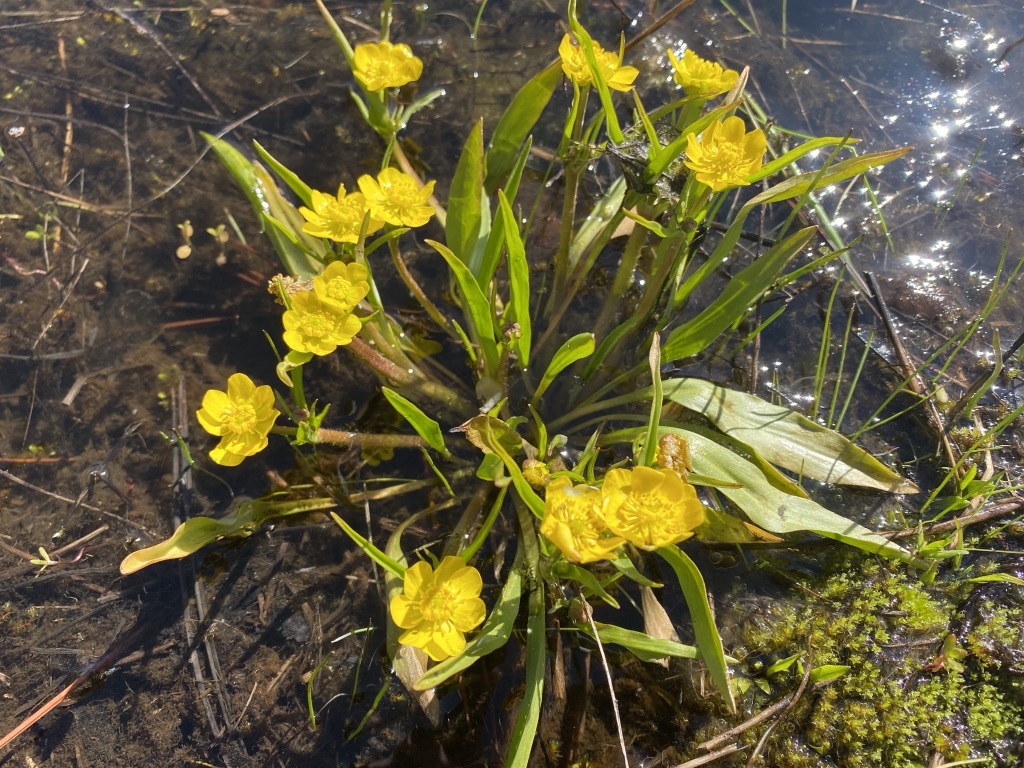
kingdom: Plantae
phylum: Tracheophyta
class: Magnoliopsida
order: Ranunculales
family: Ranunculaceae
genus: Ranunculus
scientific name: Ranunculus alismifolius
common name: Plantain-leaved buttercup
